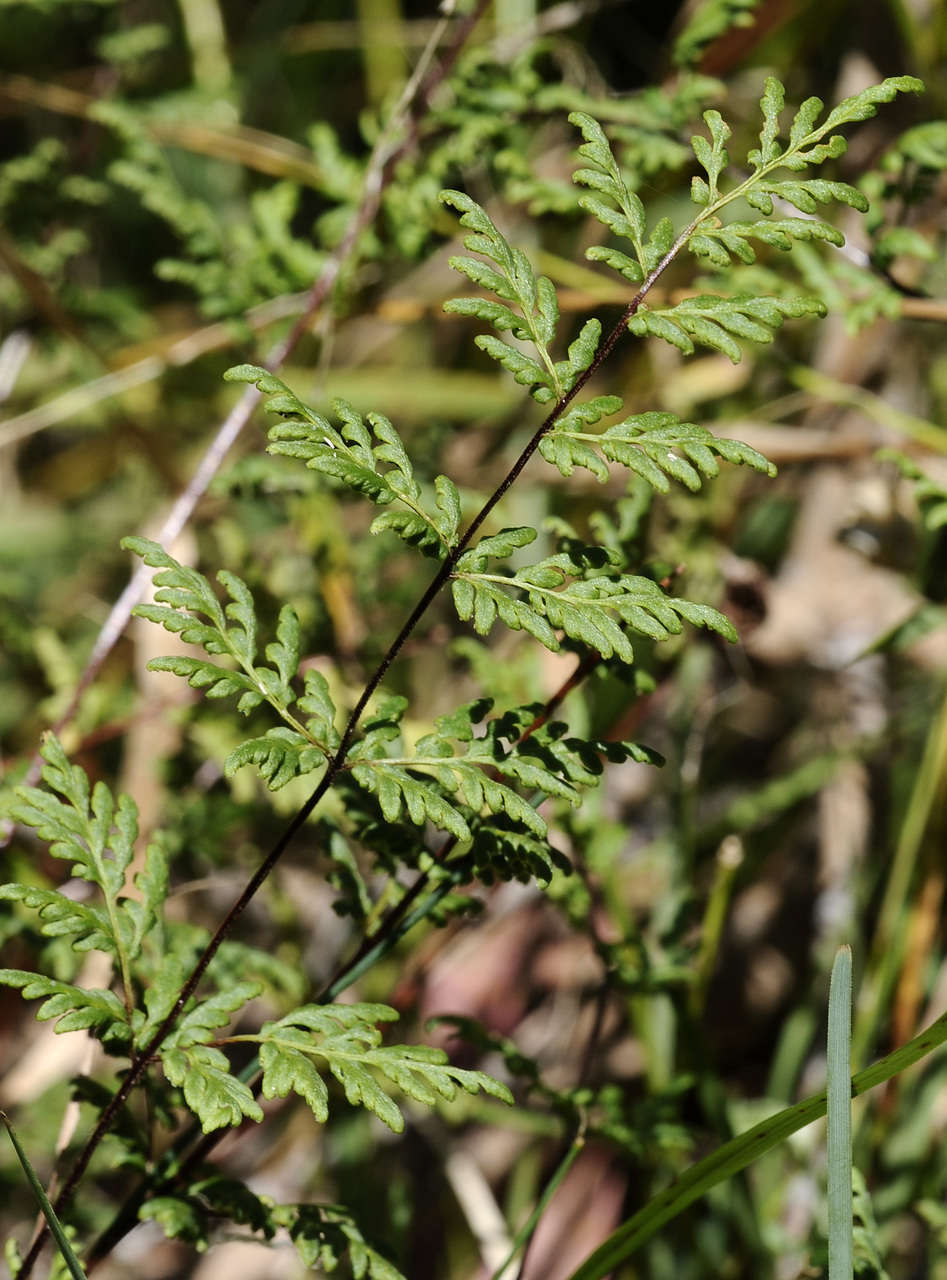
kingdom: Plantae
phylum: Tracheophyta
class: Polypodiopsida
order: Polypodiales
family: Pteridaceae
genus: Cheilanthes
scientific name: Cheilanthes austrotenuifolia
